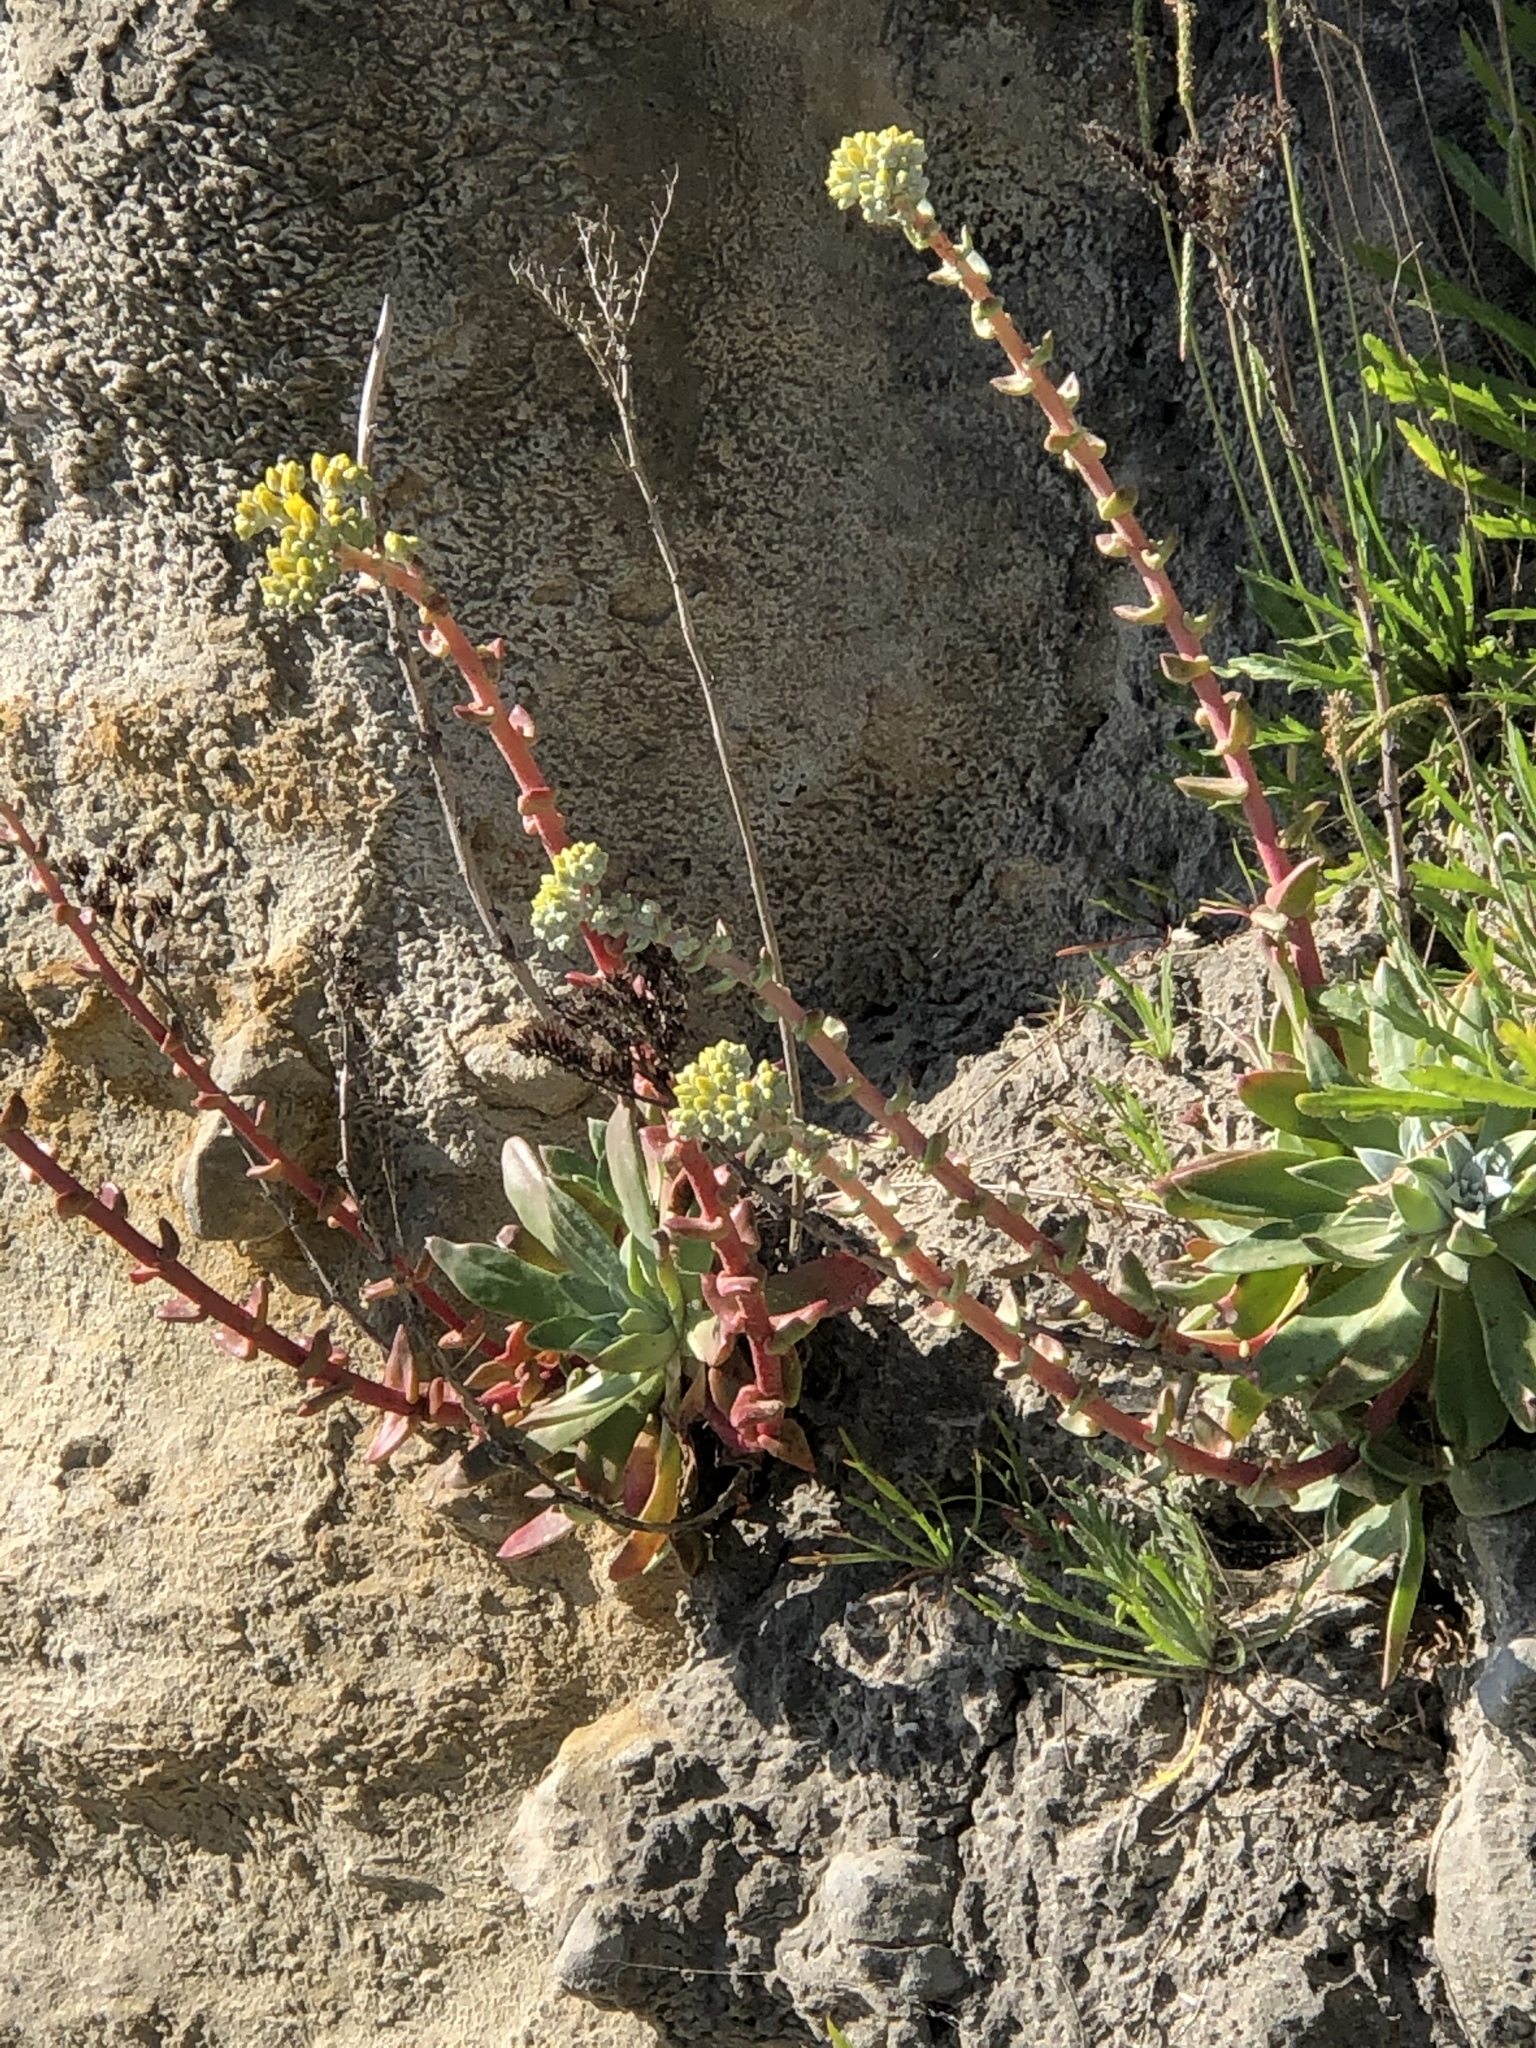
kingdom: Plantae
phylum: Tracheophyta
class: Magnoliopsida
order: Saxifragales
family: Crassulaceae
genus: Dudleya
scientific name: Dudleya caespitosa
